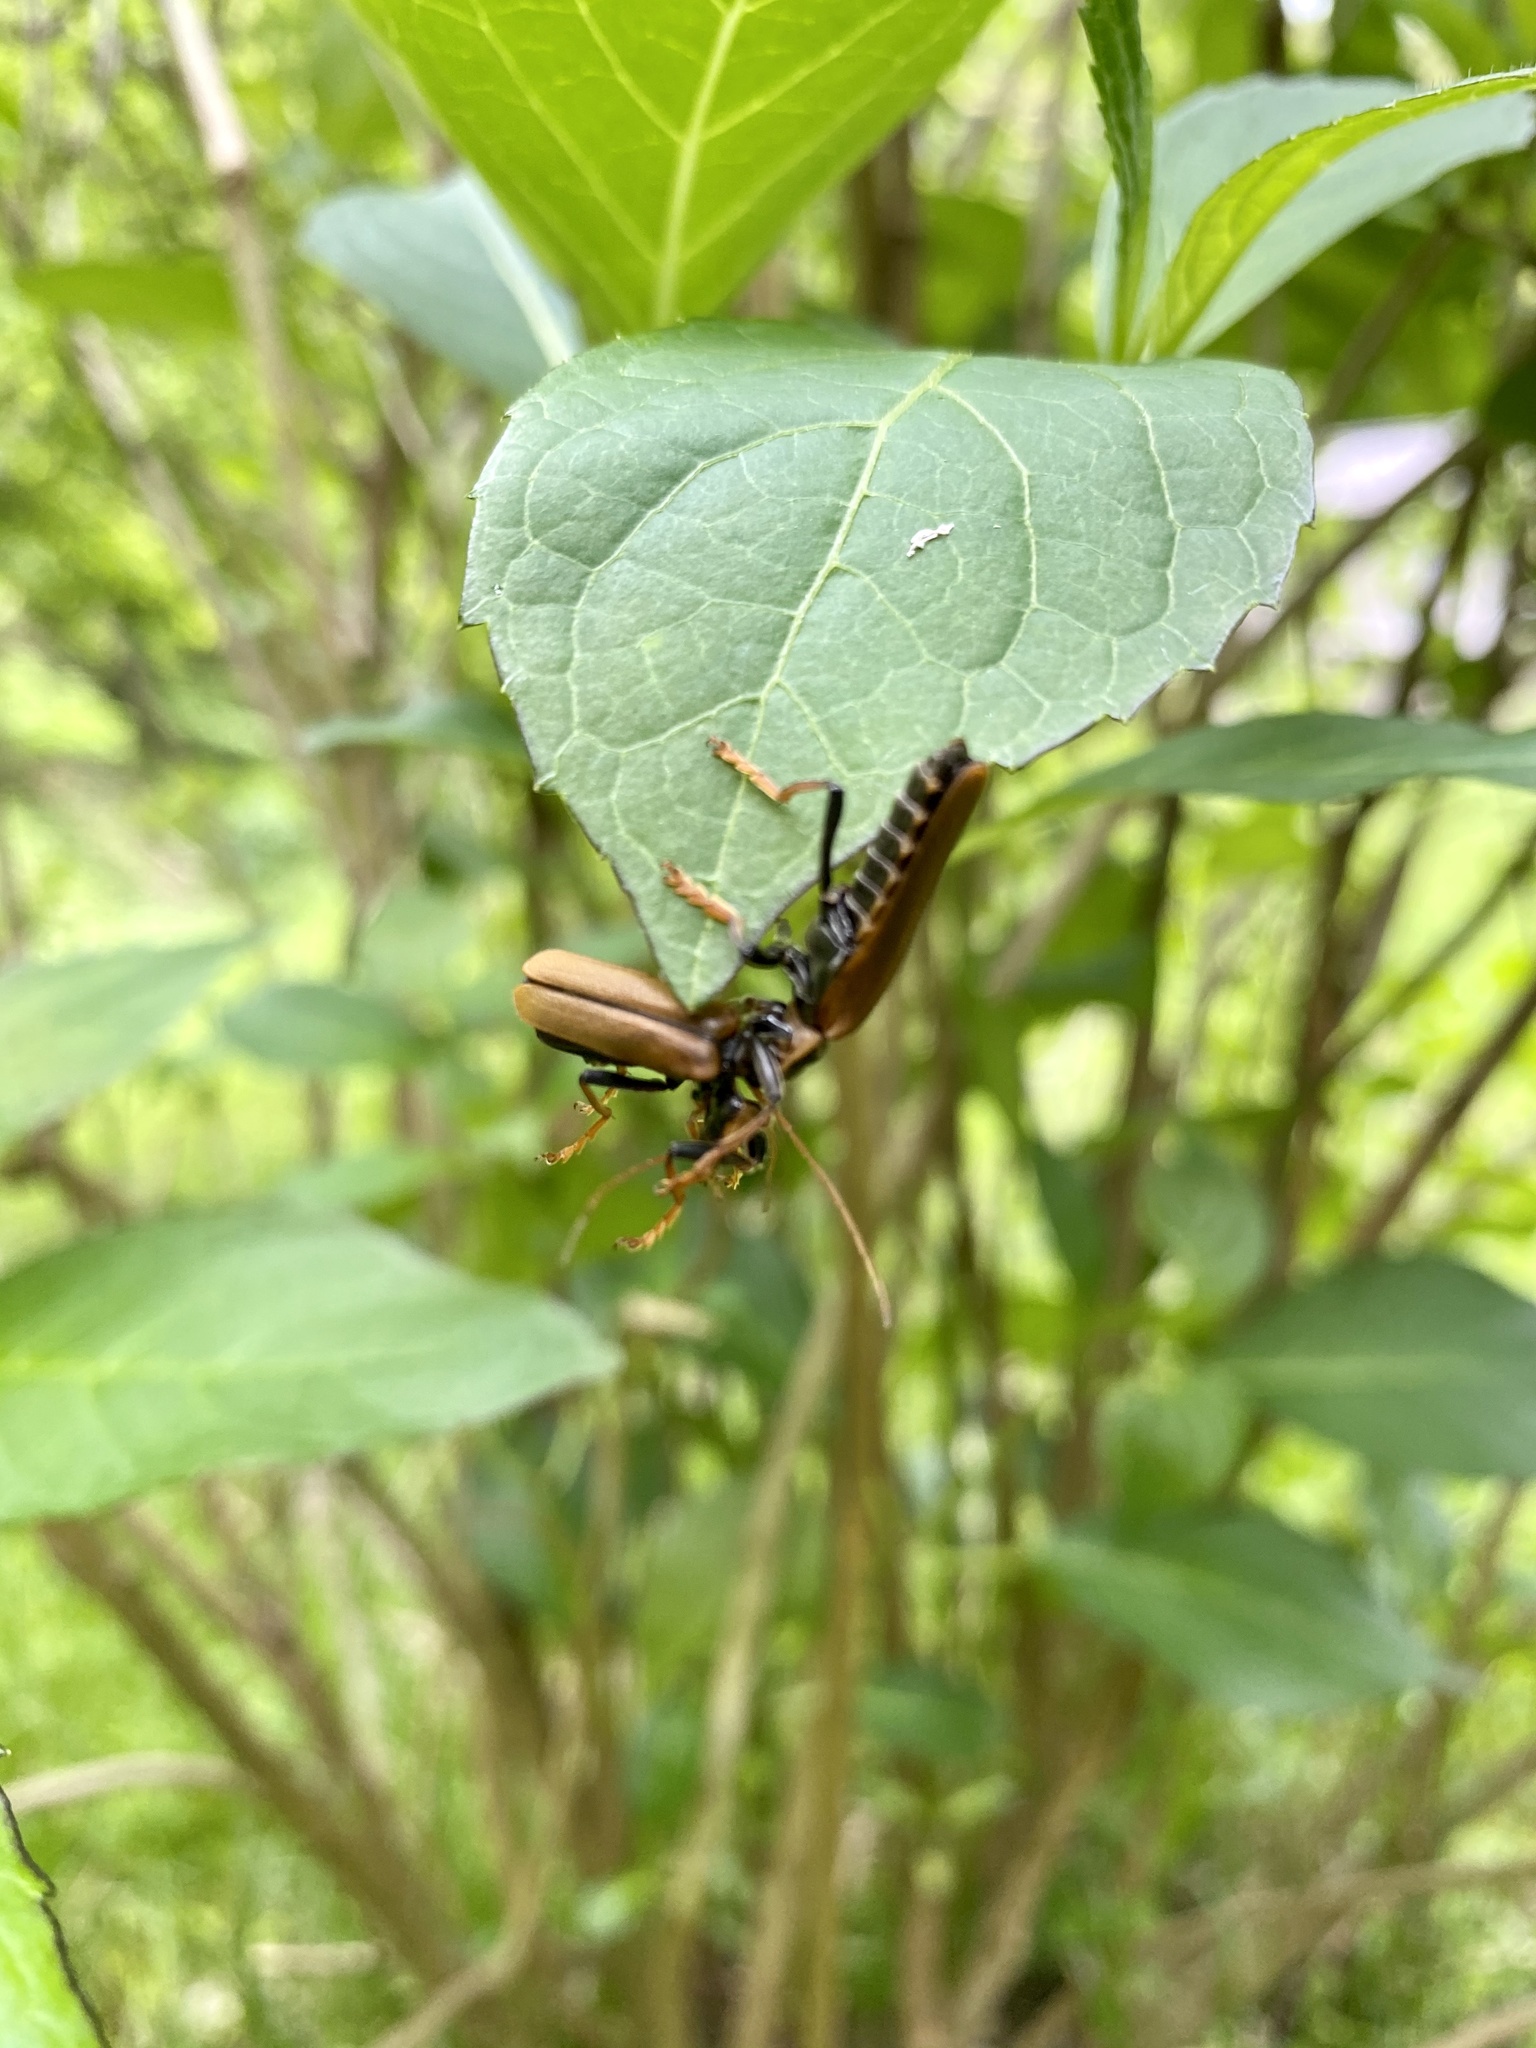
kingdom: Animalia
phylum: Arthropoda
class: Insecta
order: Coleoptera
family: Cantharidae
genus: Lycocerus
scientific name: Lycocerus suturellus
